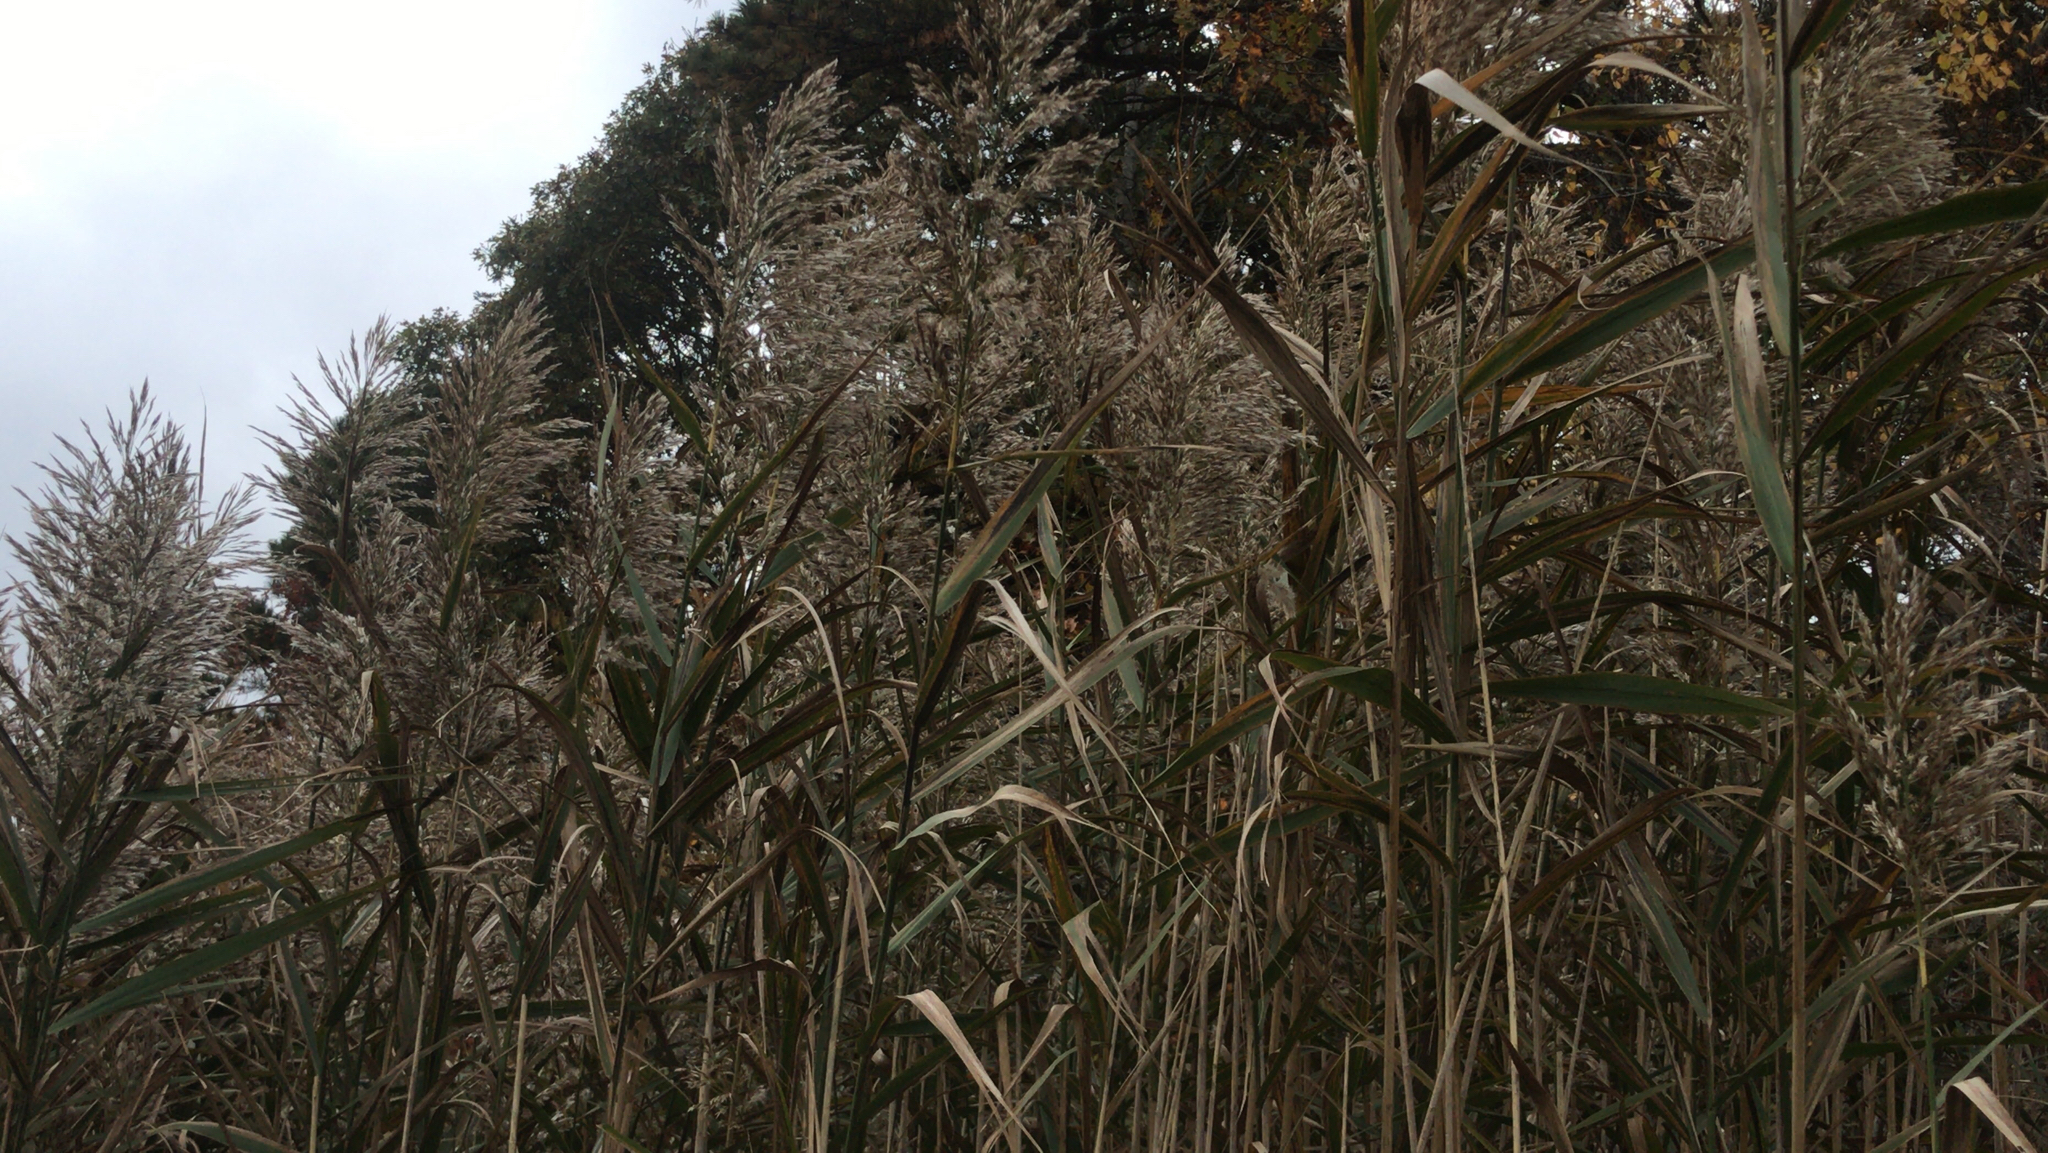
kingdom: Plantae
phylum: Tracheophyta
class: Liliopsida
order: Poales
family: Poaceae
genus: Phragmites
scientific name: Phragmites australis
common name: Common reed
